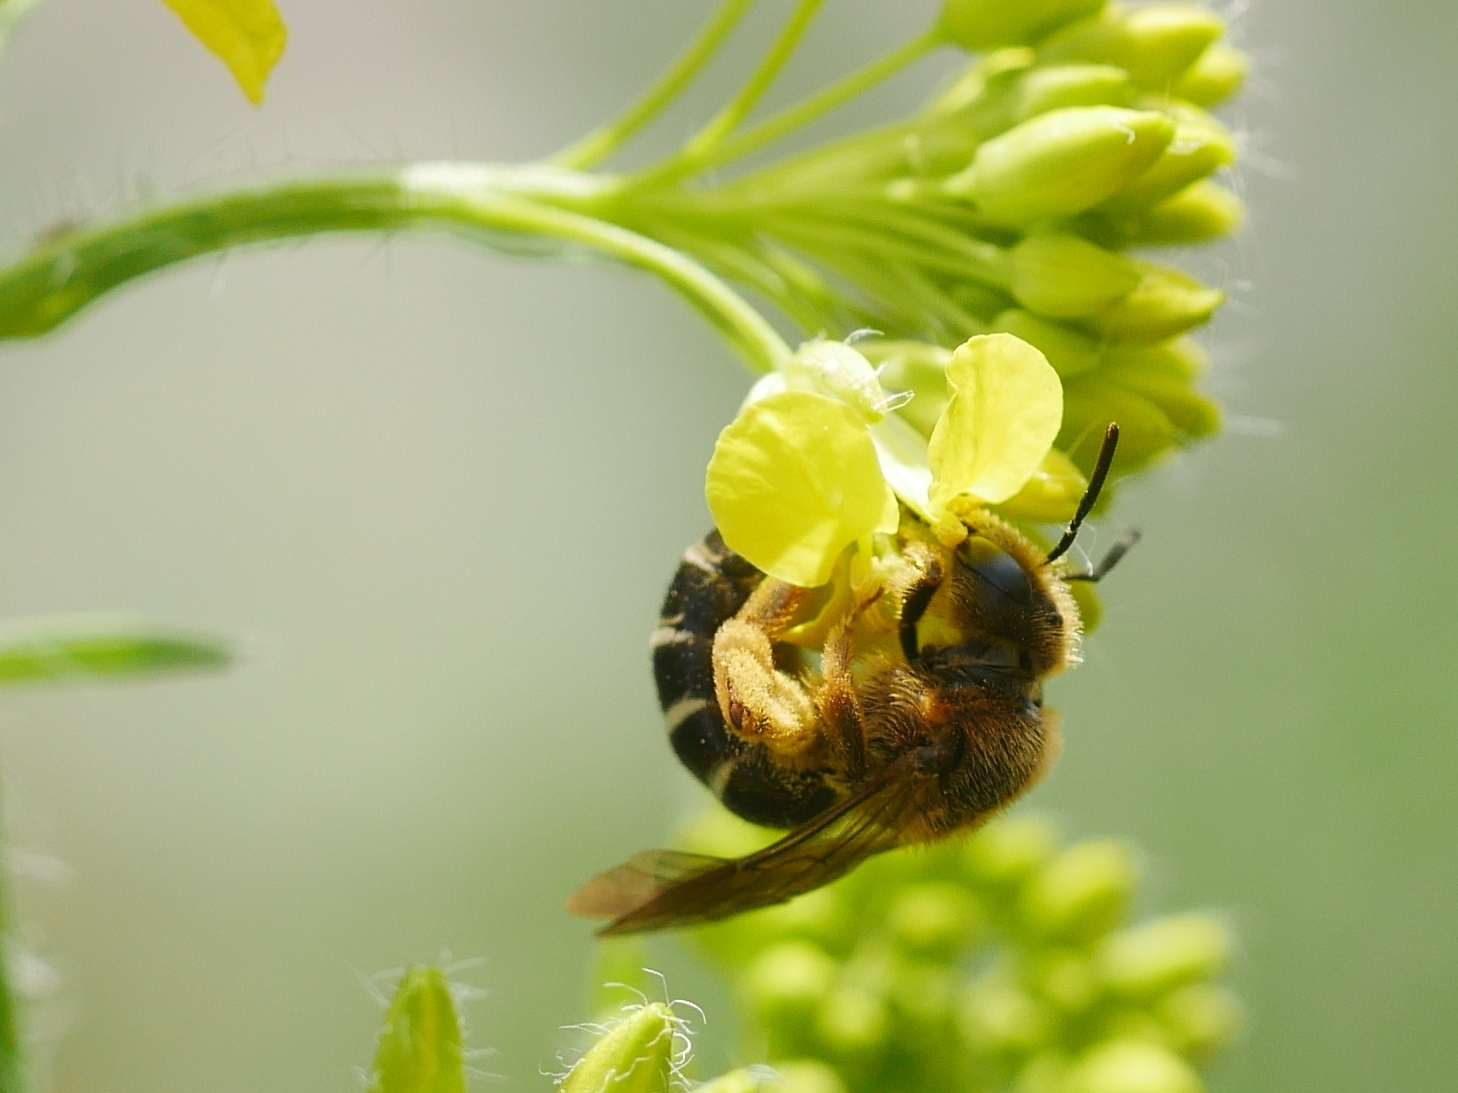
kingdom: Animalia
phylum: Arthropoda
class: Insecta
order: Hymenoptera
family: Halictidae
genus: Halictus
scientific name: Halictus rubicundus
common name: Orange-legged furrow bee
